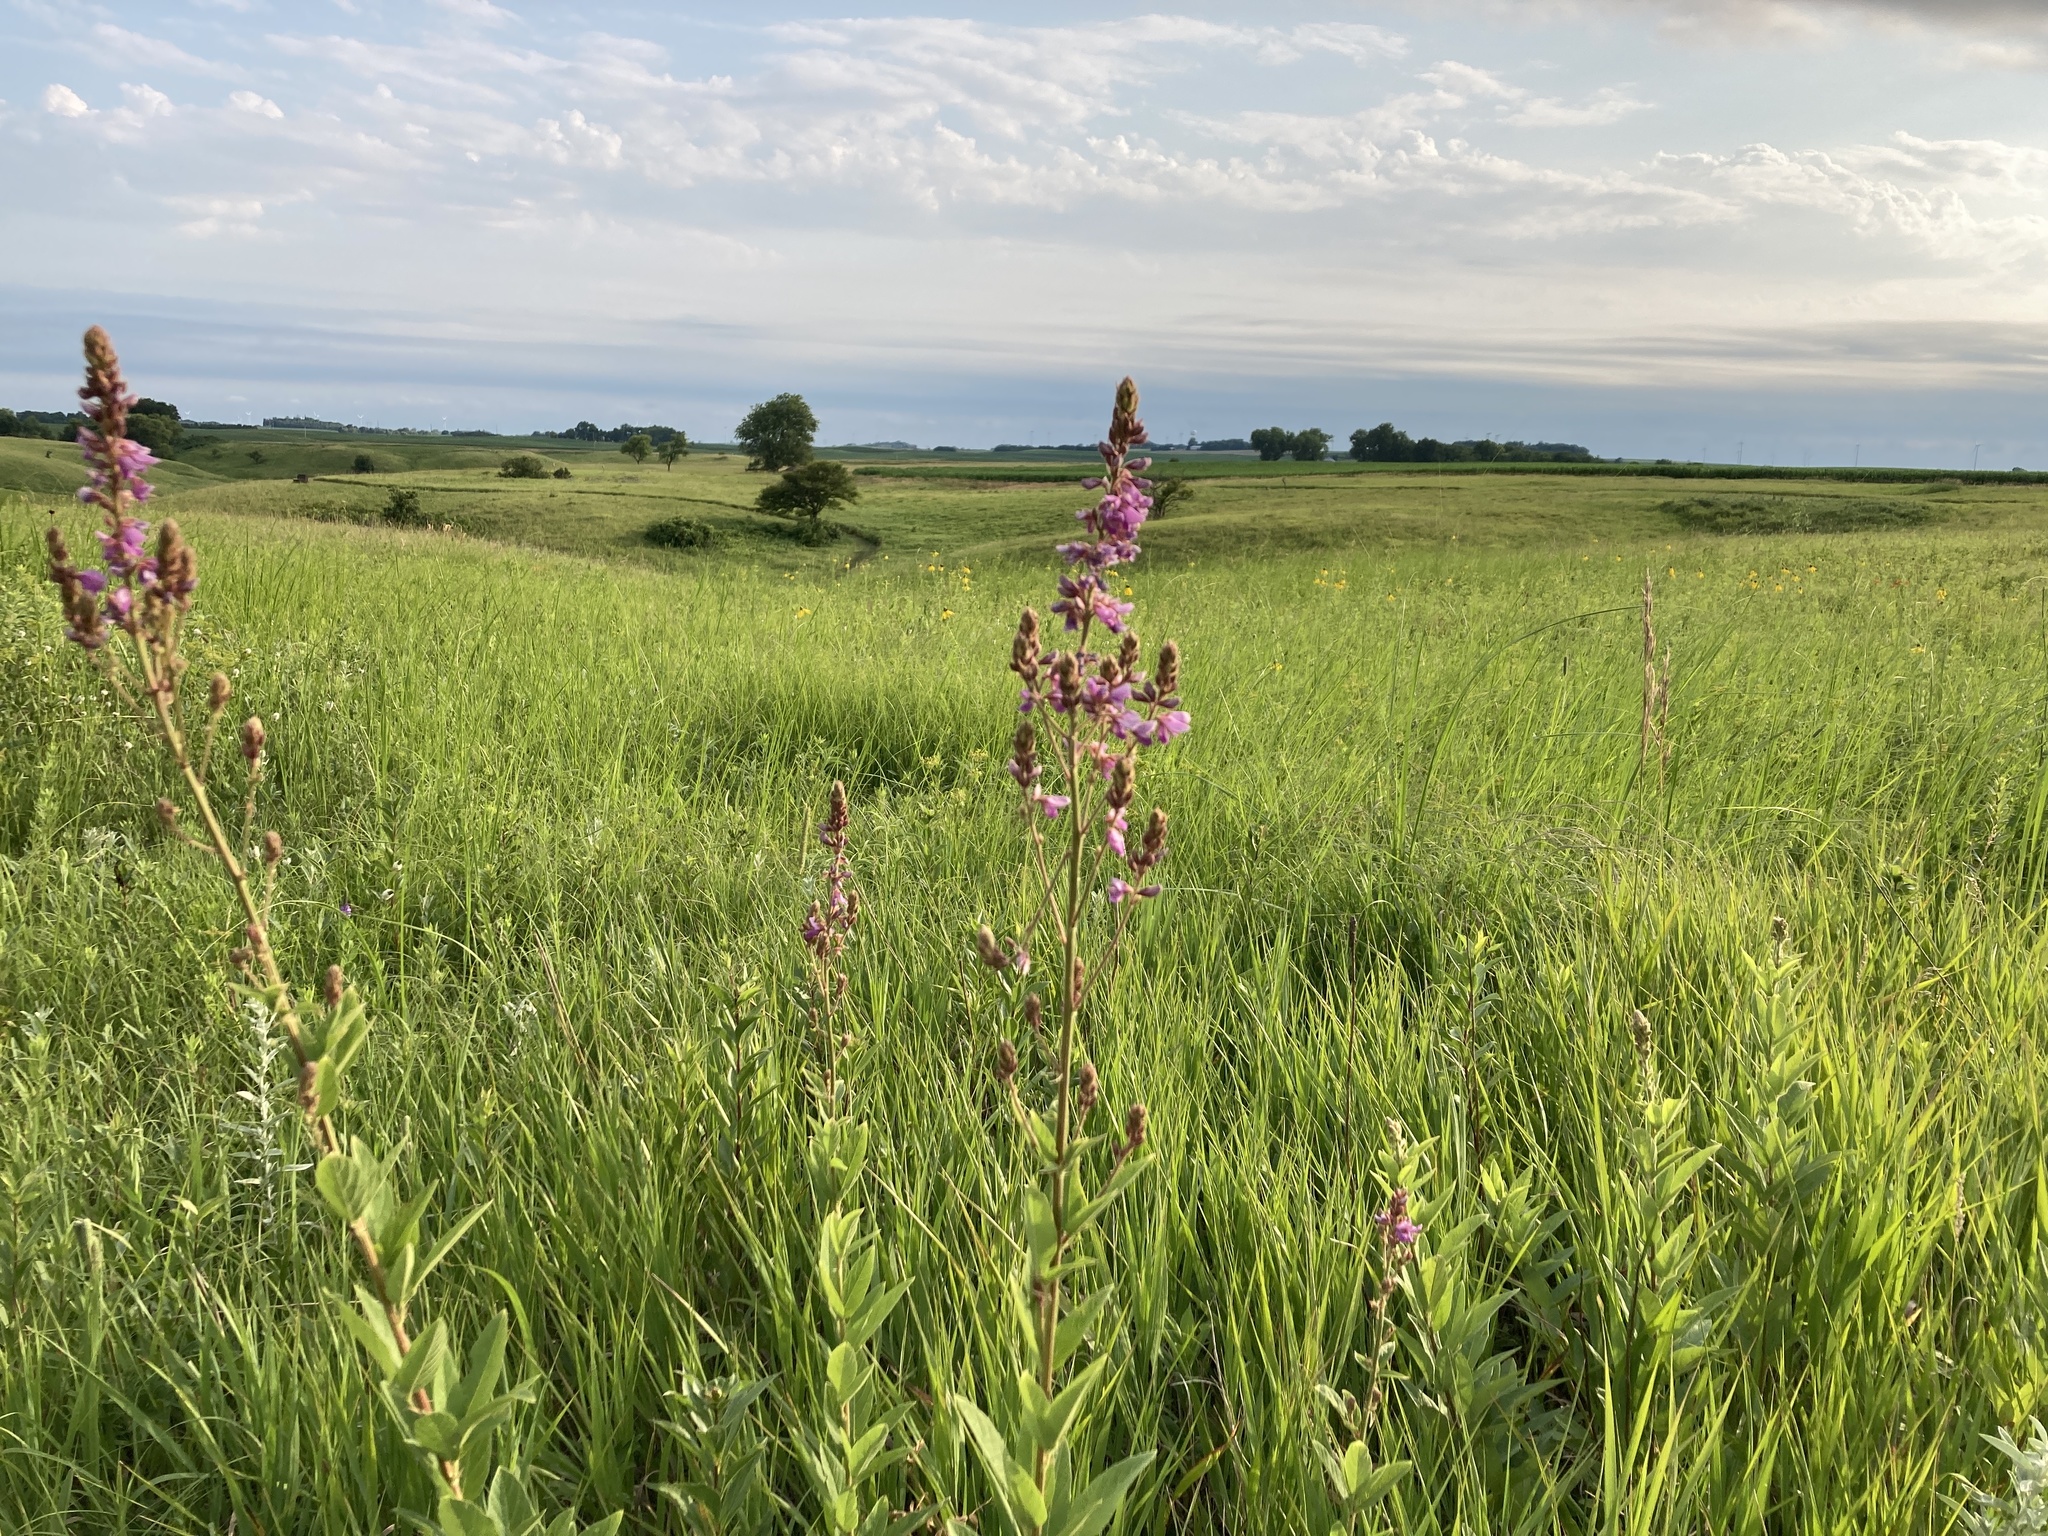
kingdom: Plantae
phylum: Tracheophyta
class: Magnoliopsida
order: Fabales
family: Fabaceae
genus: Desmodium
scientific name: Desmodium canadense
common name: Canada tick-trefoil
